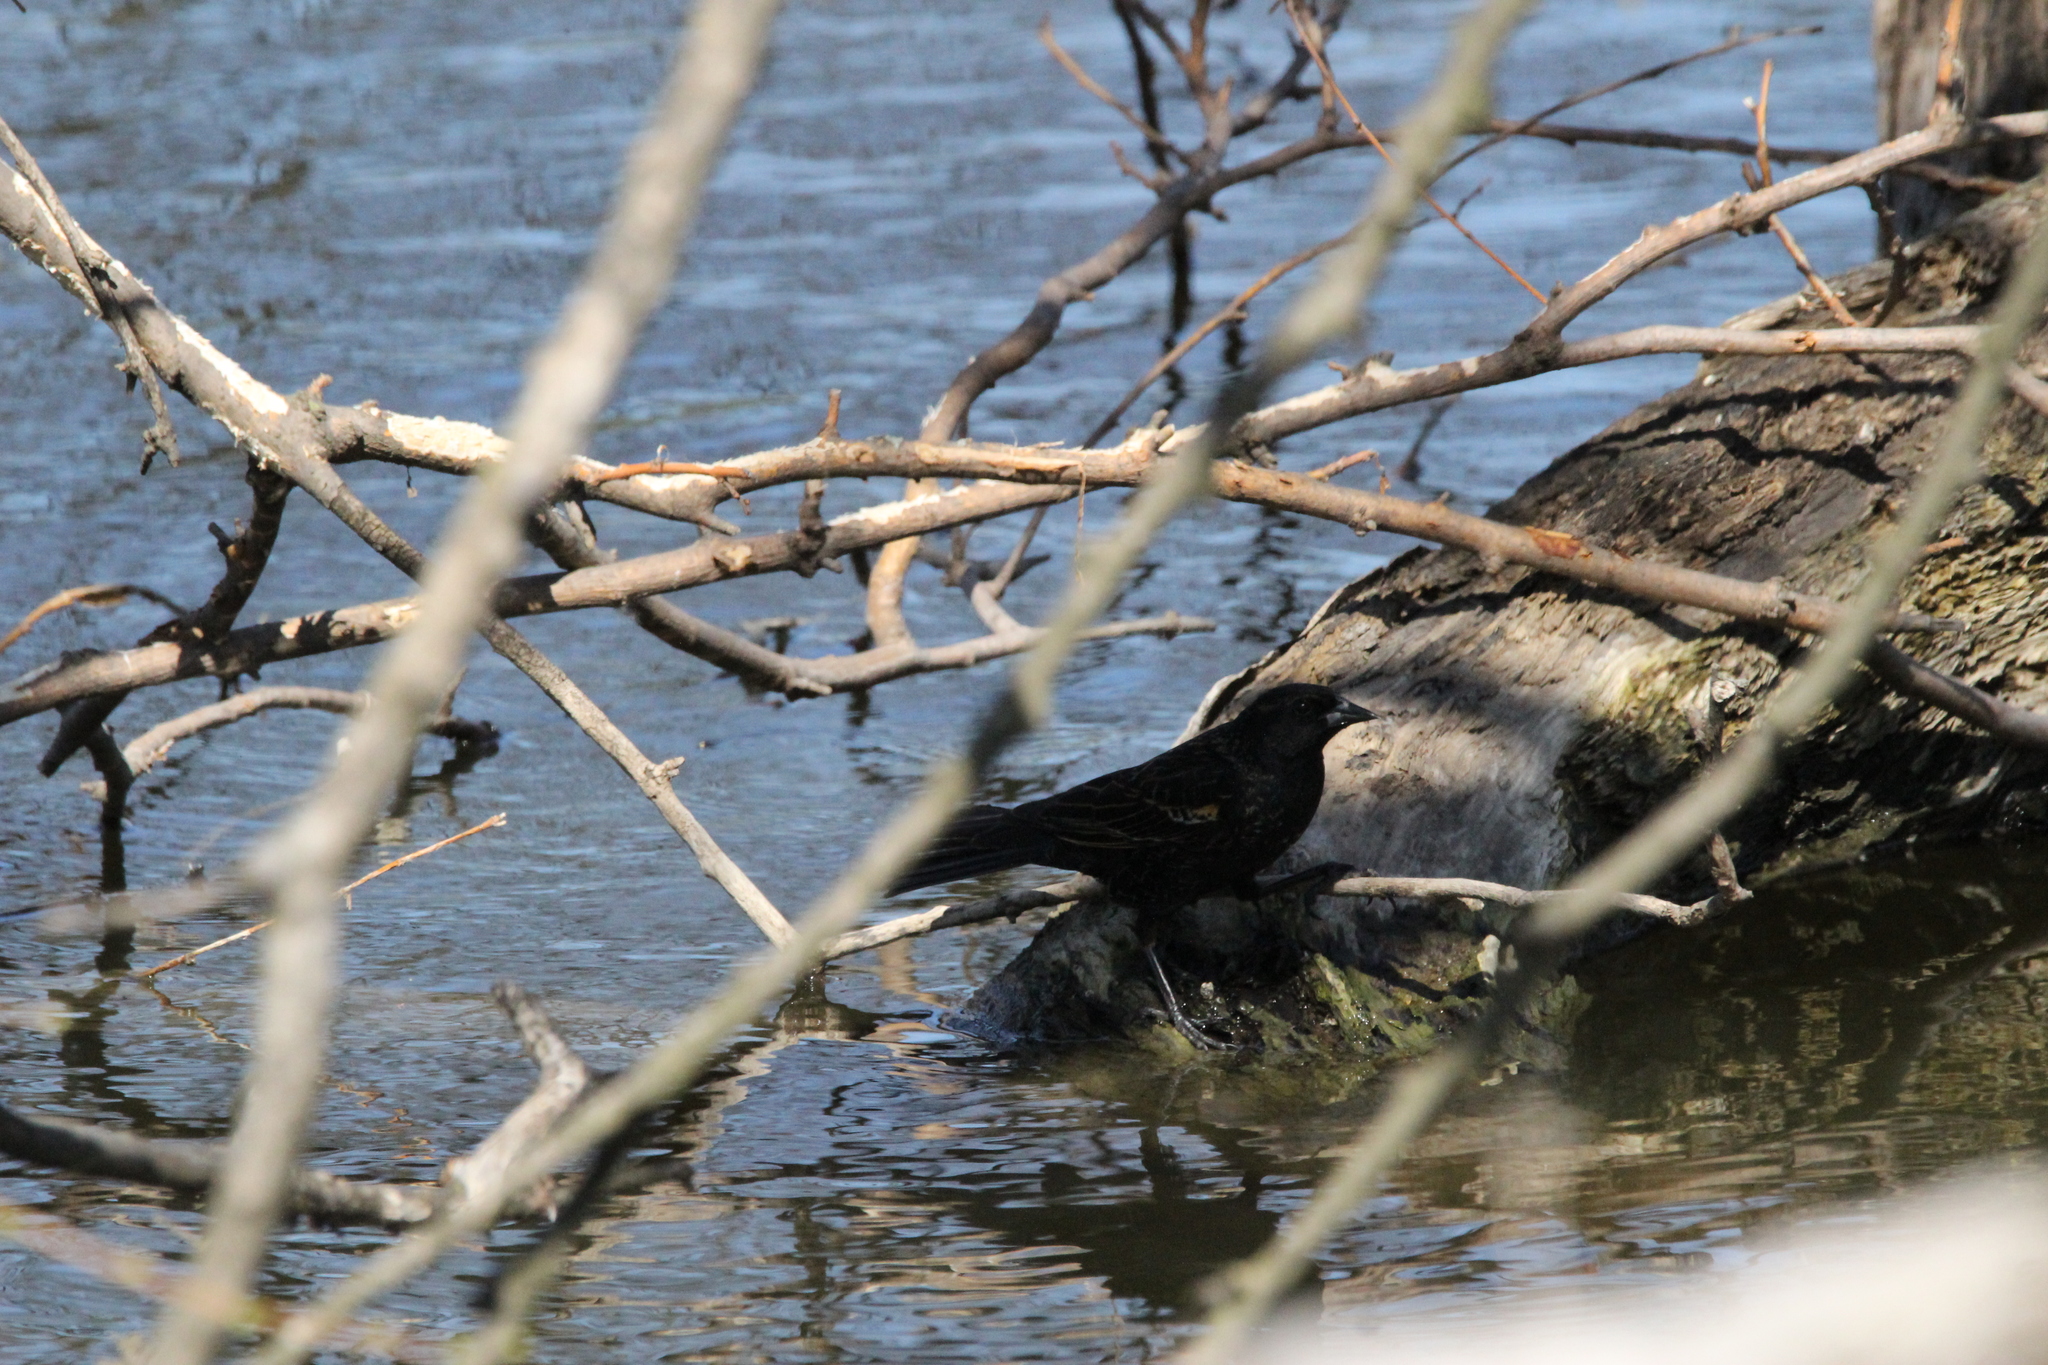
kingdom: Animalia
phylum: Chordata
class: Aves
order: Passeriformes
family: Icteridae
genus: Agelaius
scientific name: Agelaius phoeniceus
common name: Red-winged blackbird
